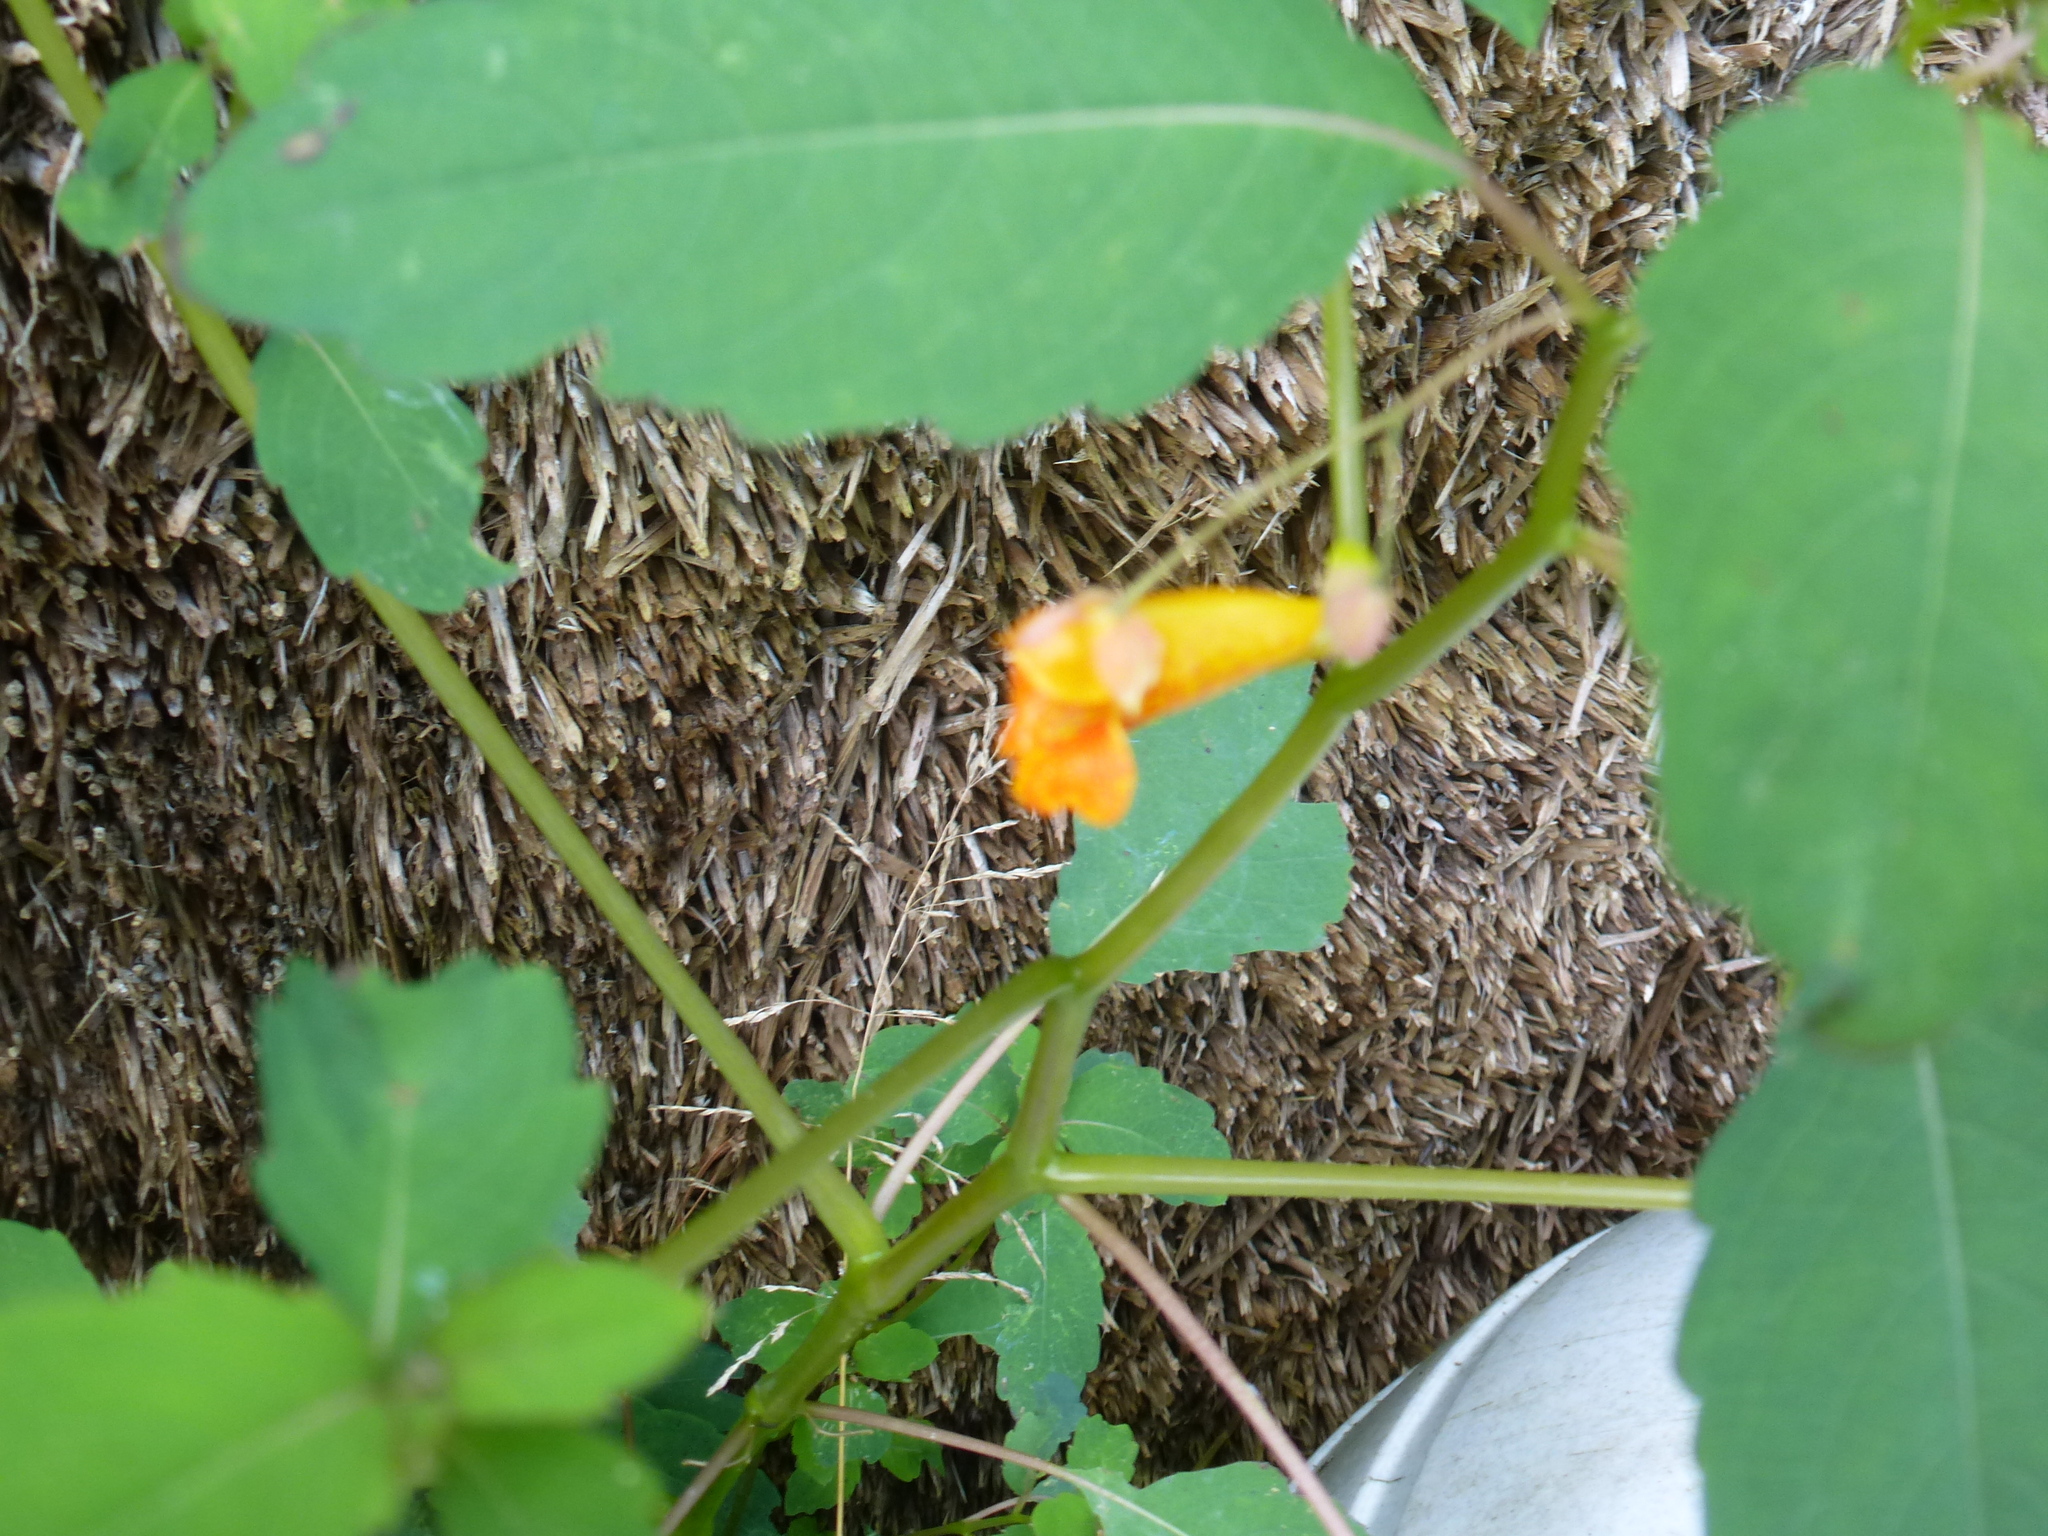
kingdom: Plantae
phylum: Tracheophyta
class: Magnoliopsida
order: Ericales
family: Balsaminaceae
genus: Impatiens
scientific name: Impatiens capensis
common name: Orange balsam
